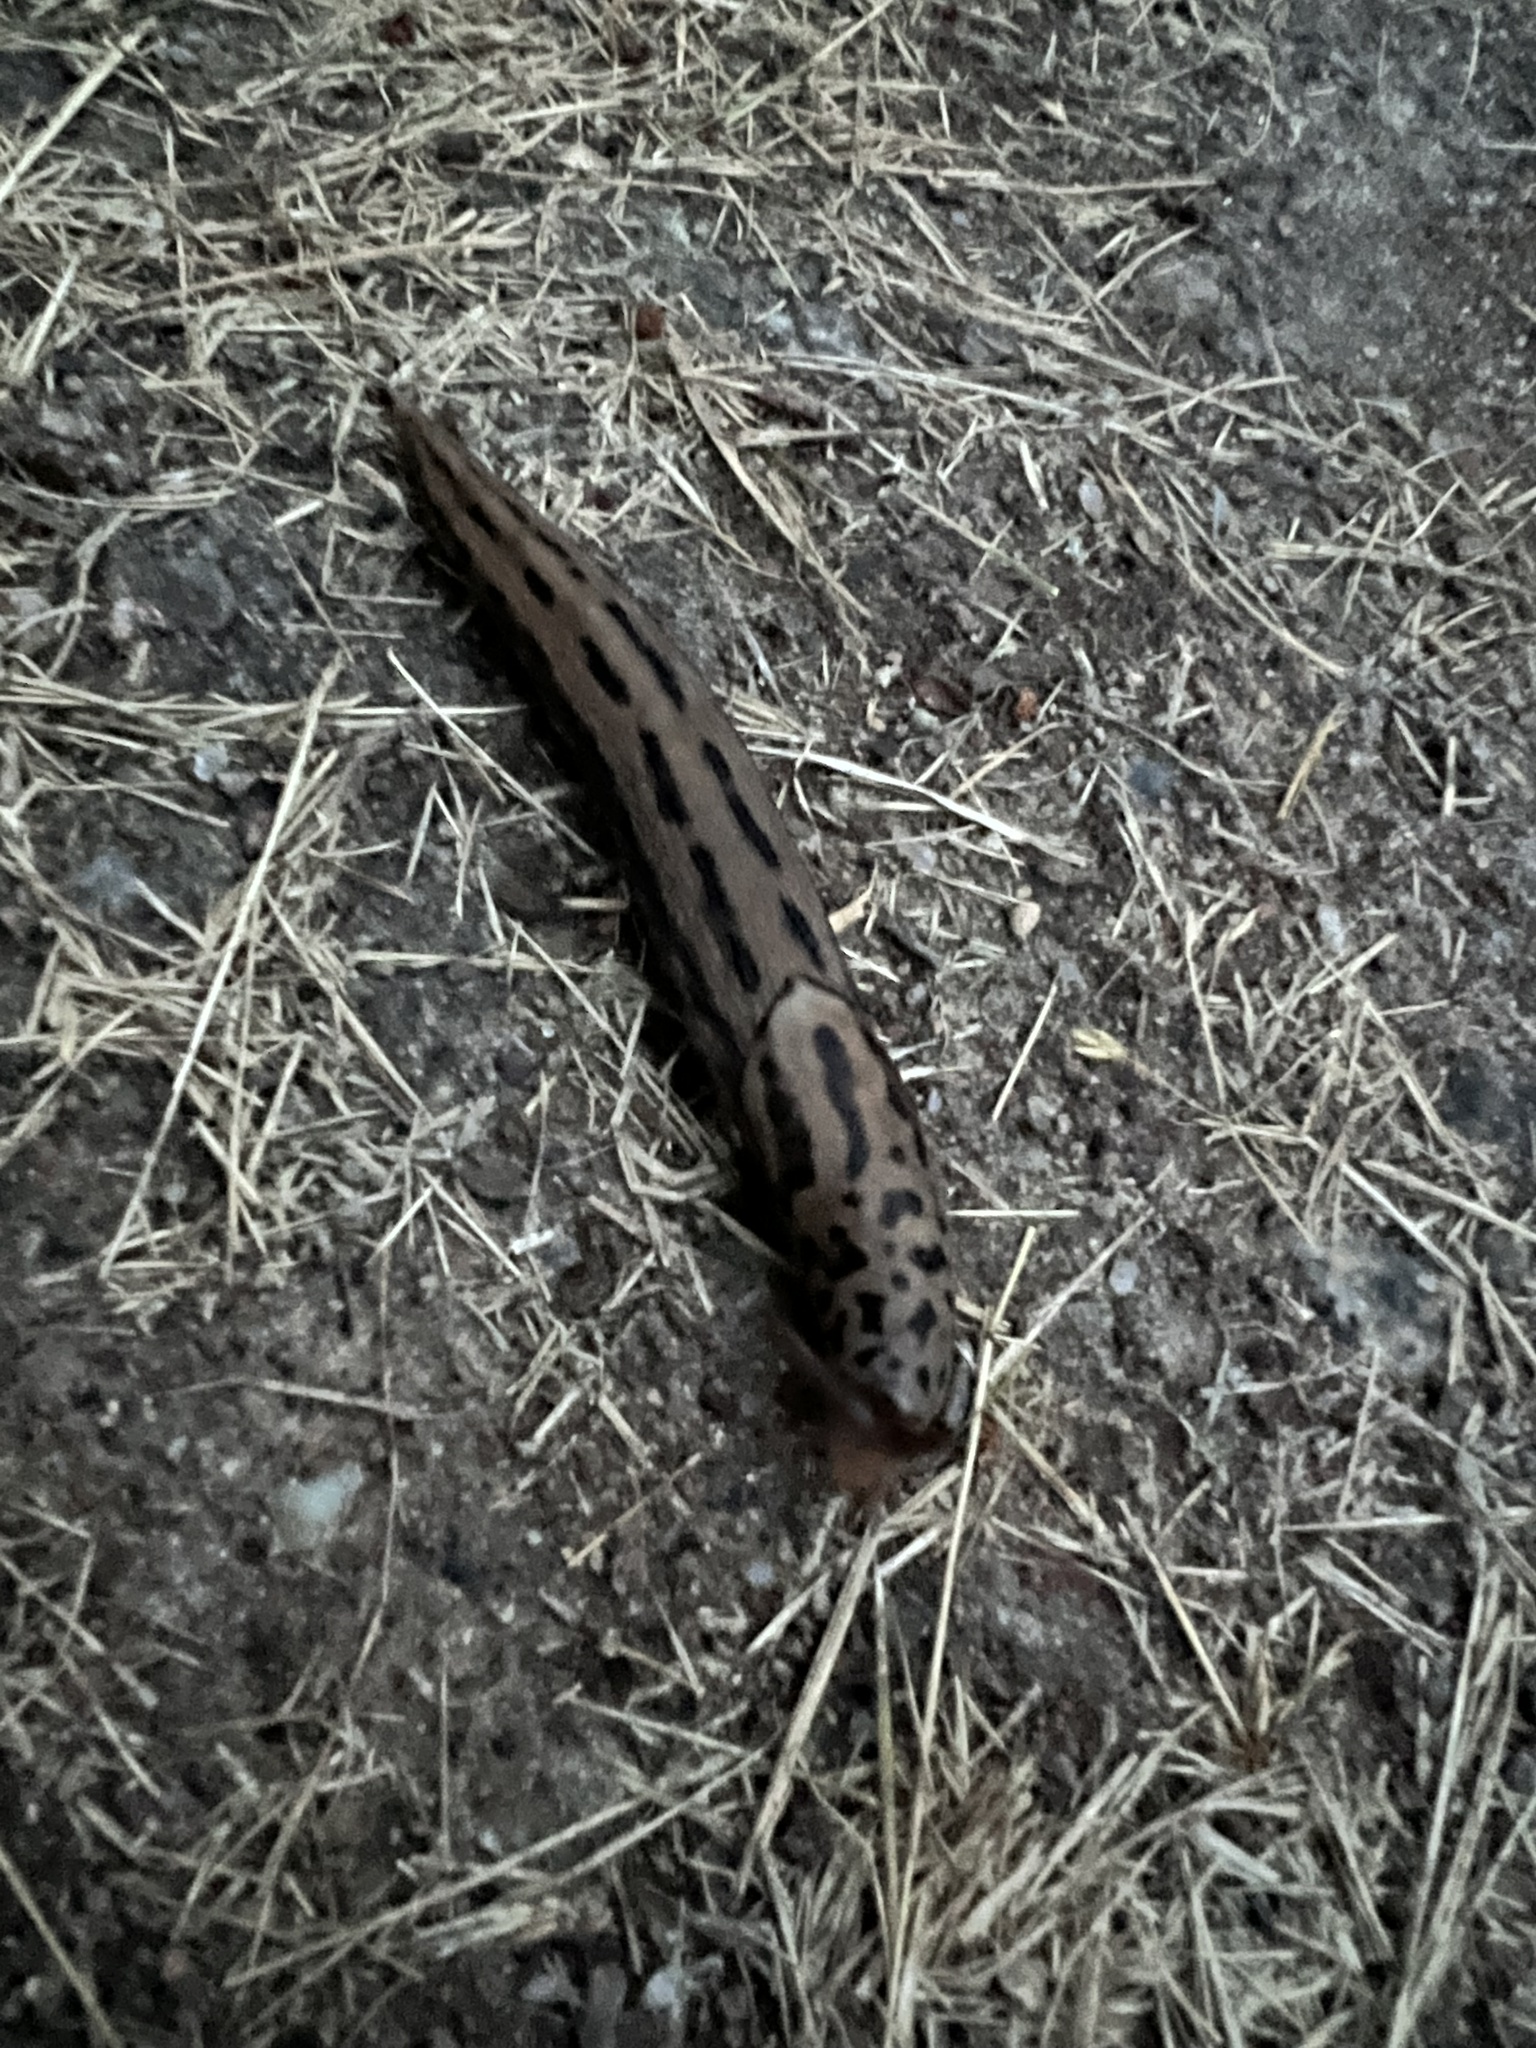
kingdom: Animalia
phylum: Mollusca
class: Gastropoda
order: Stylommatophora
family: Limacidae
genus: Limax
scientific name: Limax maximus
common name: Great grey slug
